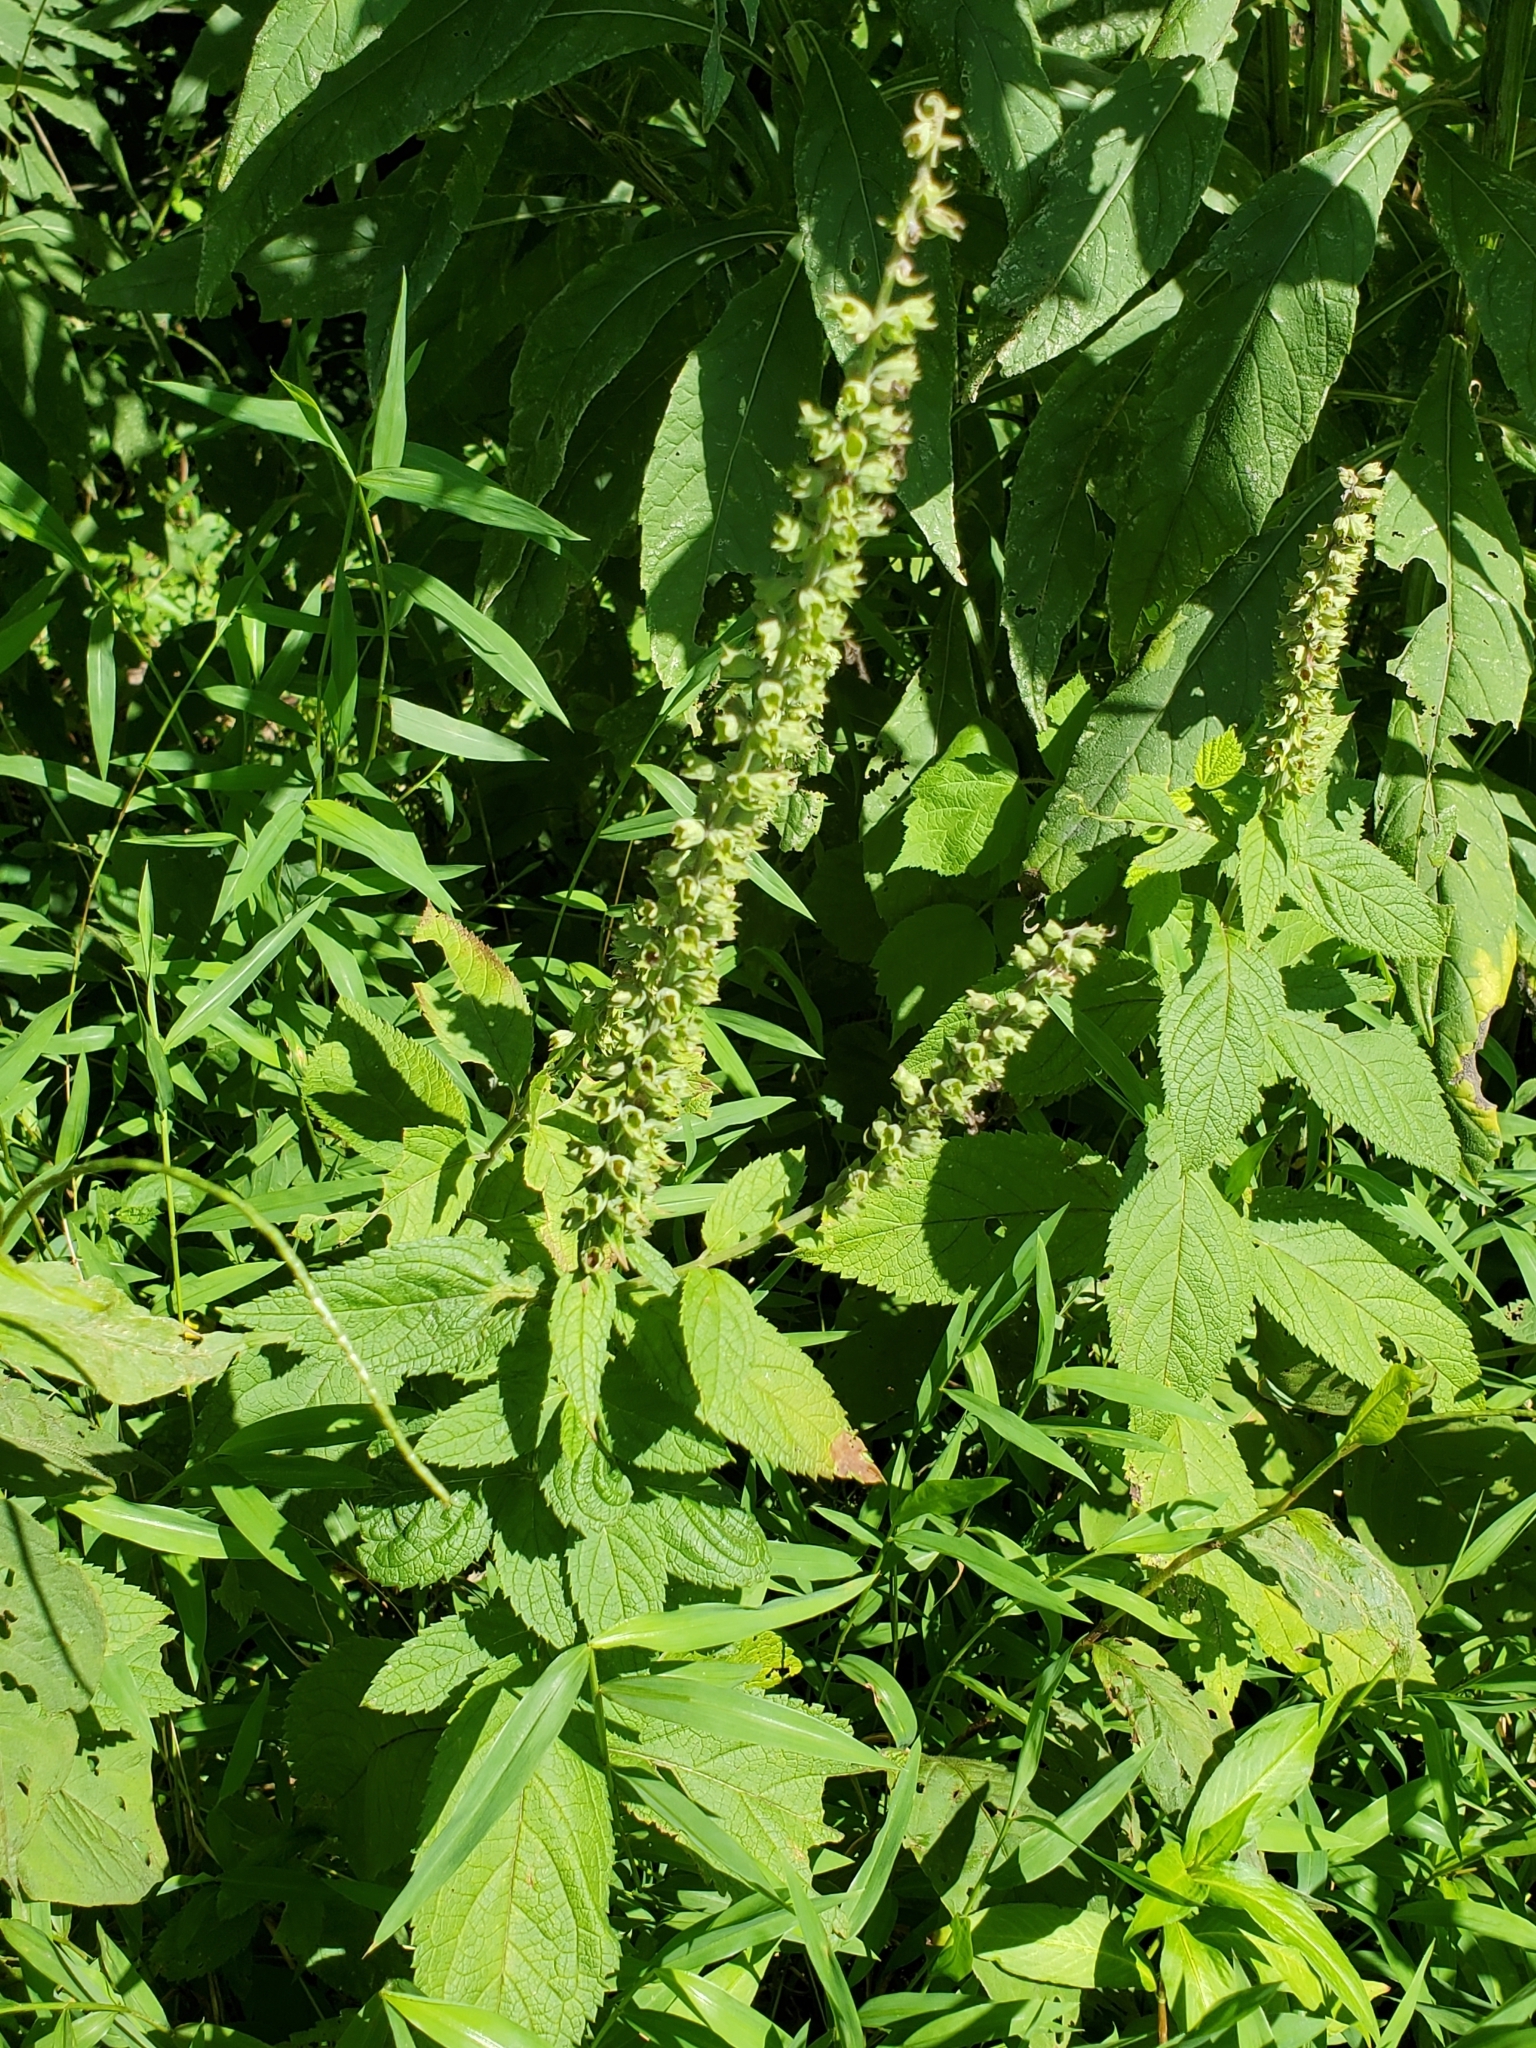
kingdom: Plantae
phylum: Tracheophyta
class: Magnoliopsida
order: Lamiales
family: Lamiaceae
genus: Teucrium
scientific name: Teucrium canadense
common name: American germander
